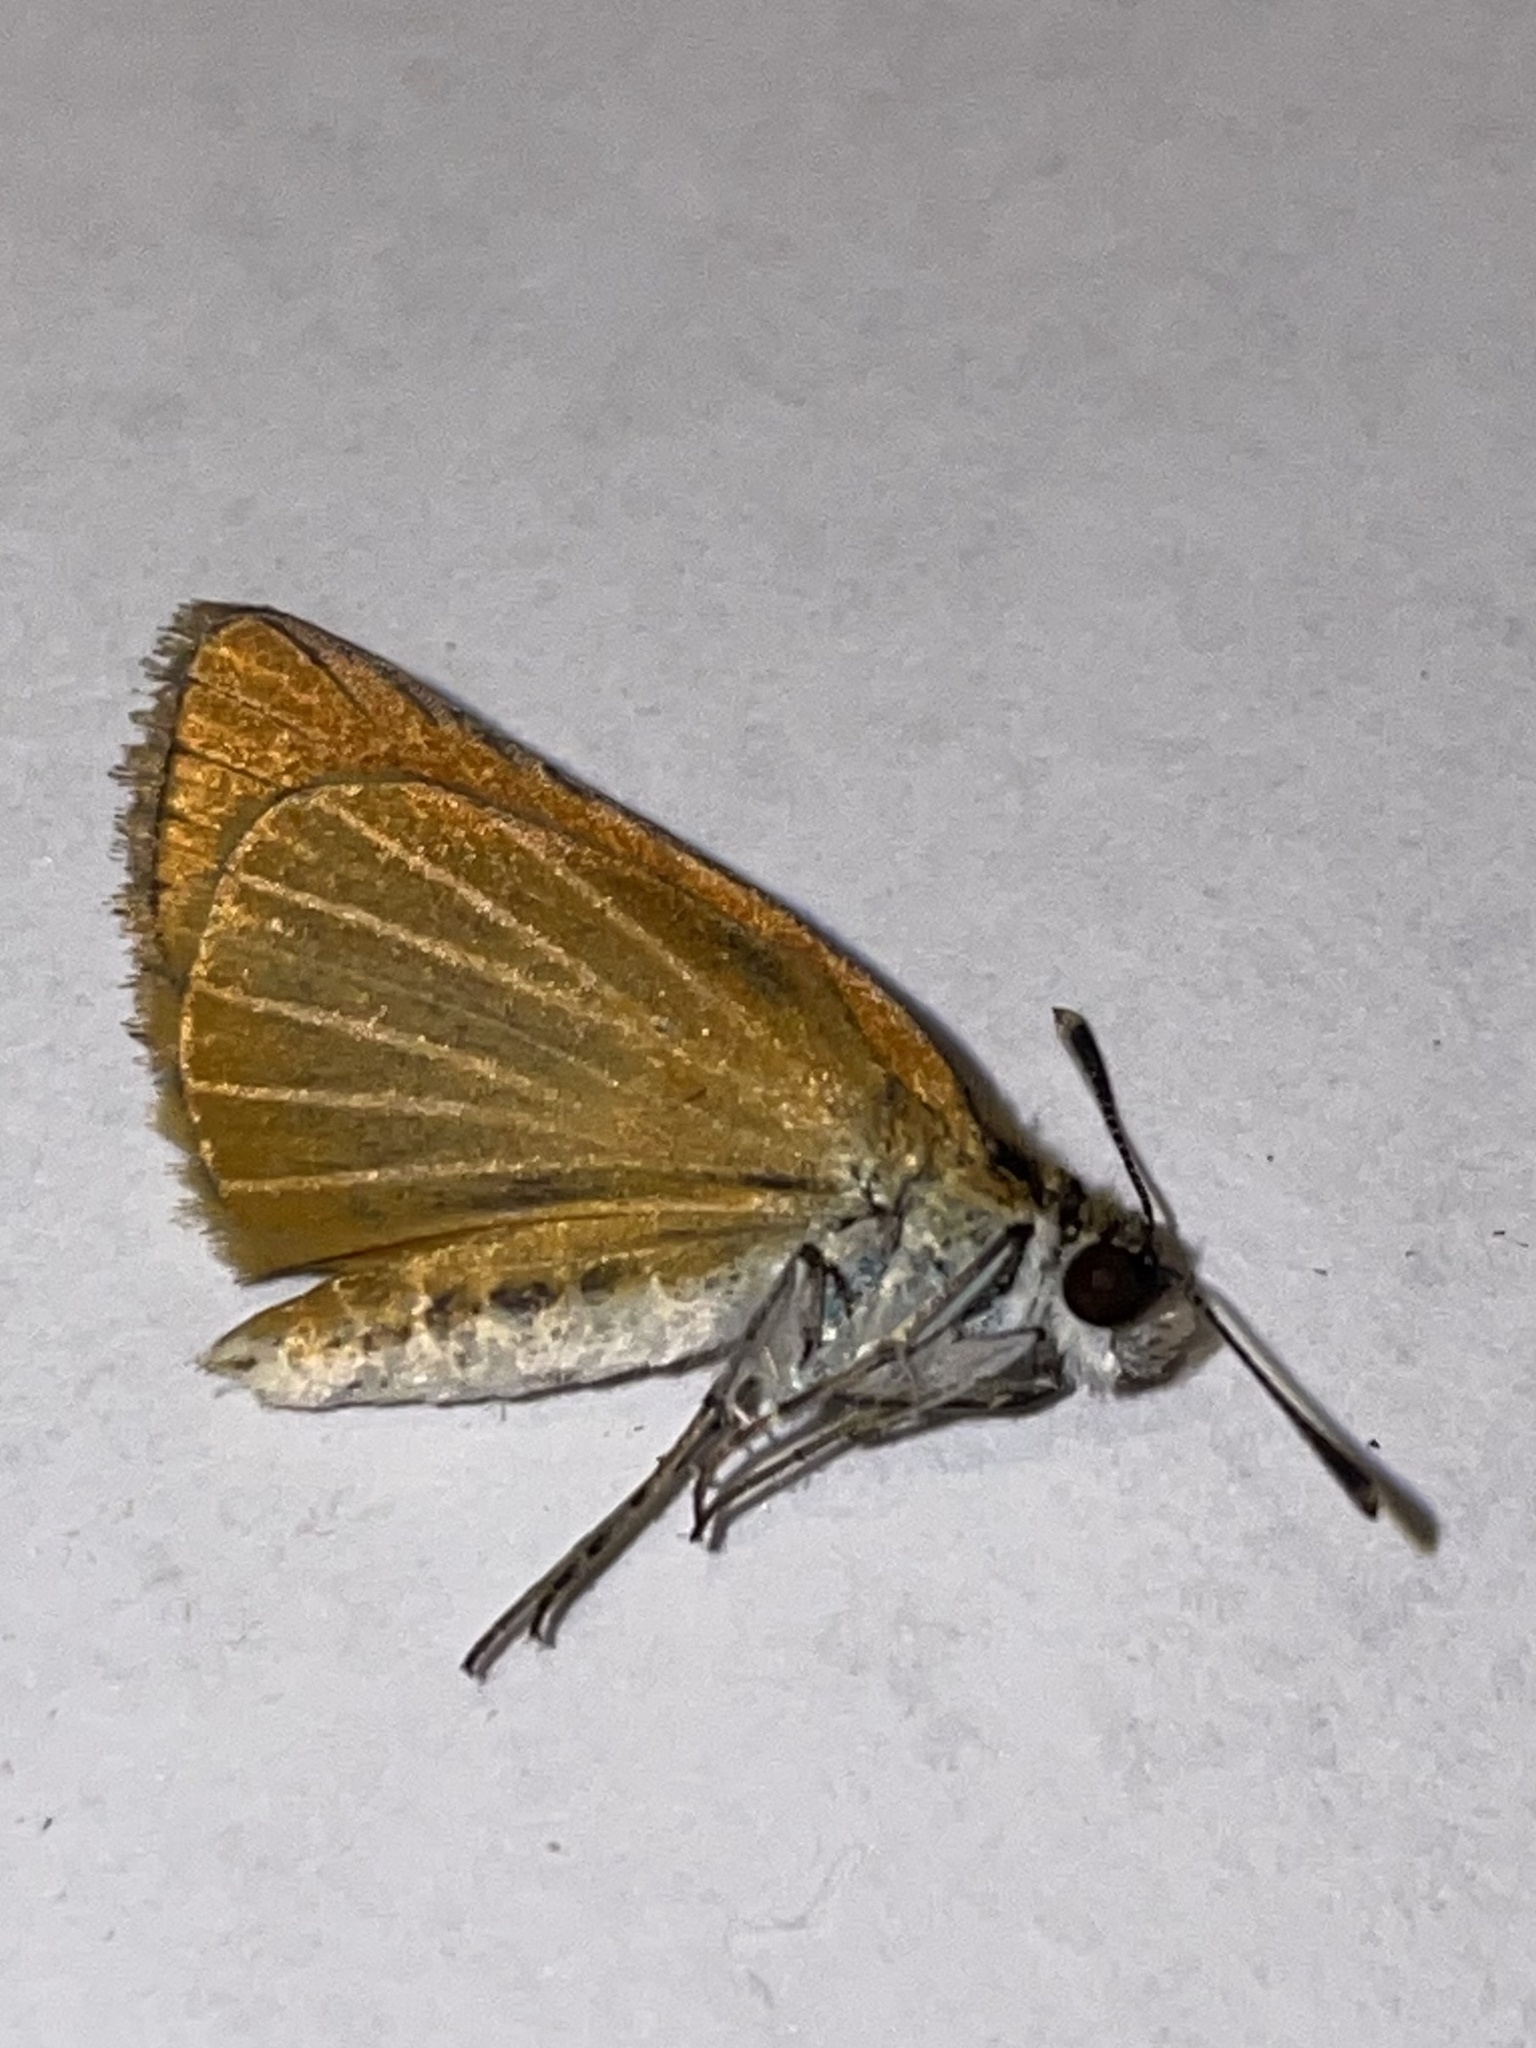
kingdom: Animalia
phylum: Arthropoda
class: Insecta
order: Lepidoptera
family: Hesperiidae
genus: Ancyloxypha
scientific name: Ancyloxypha numitor
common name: Least skipper
